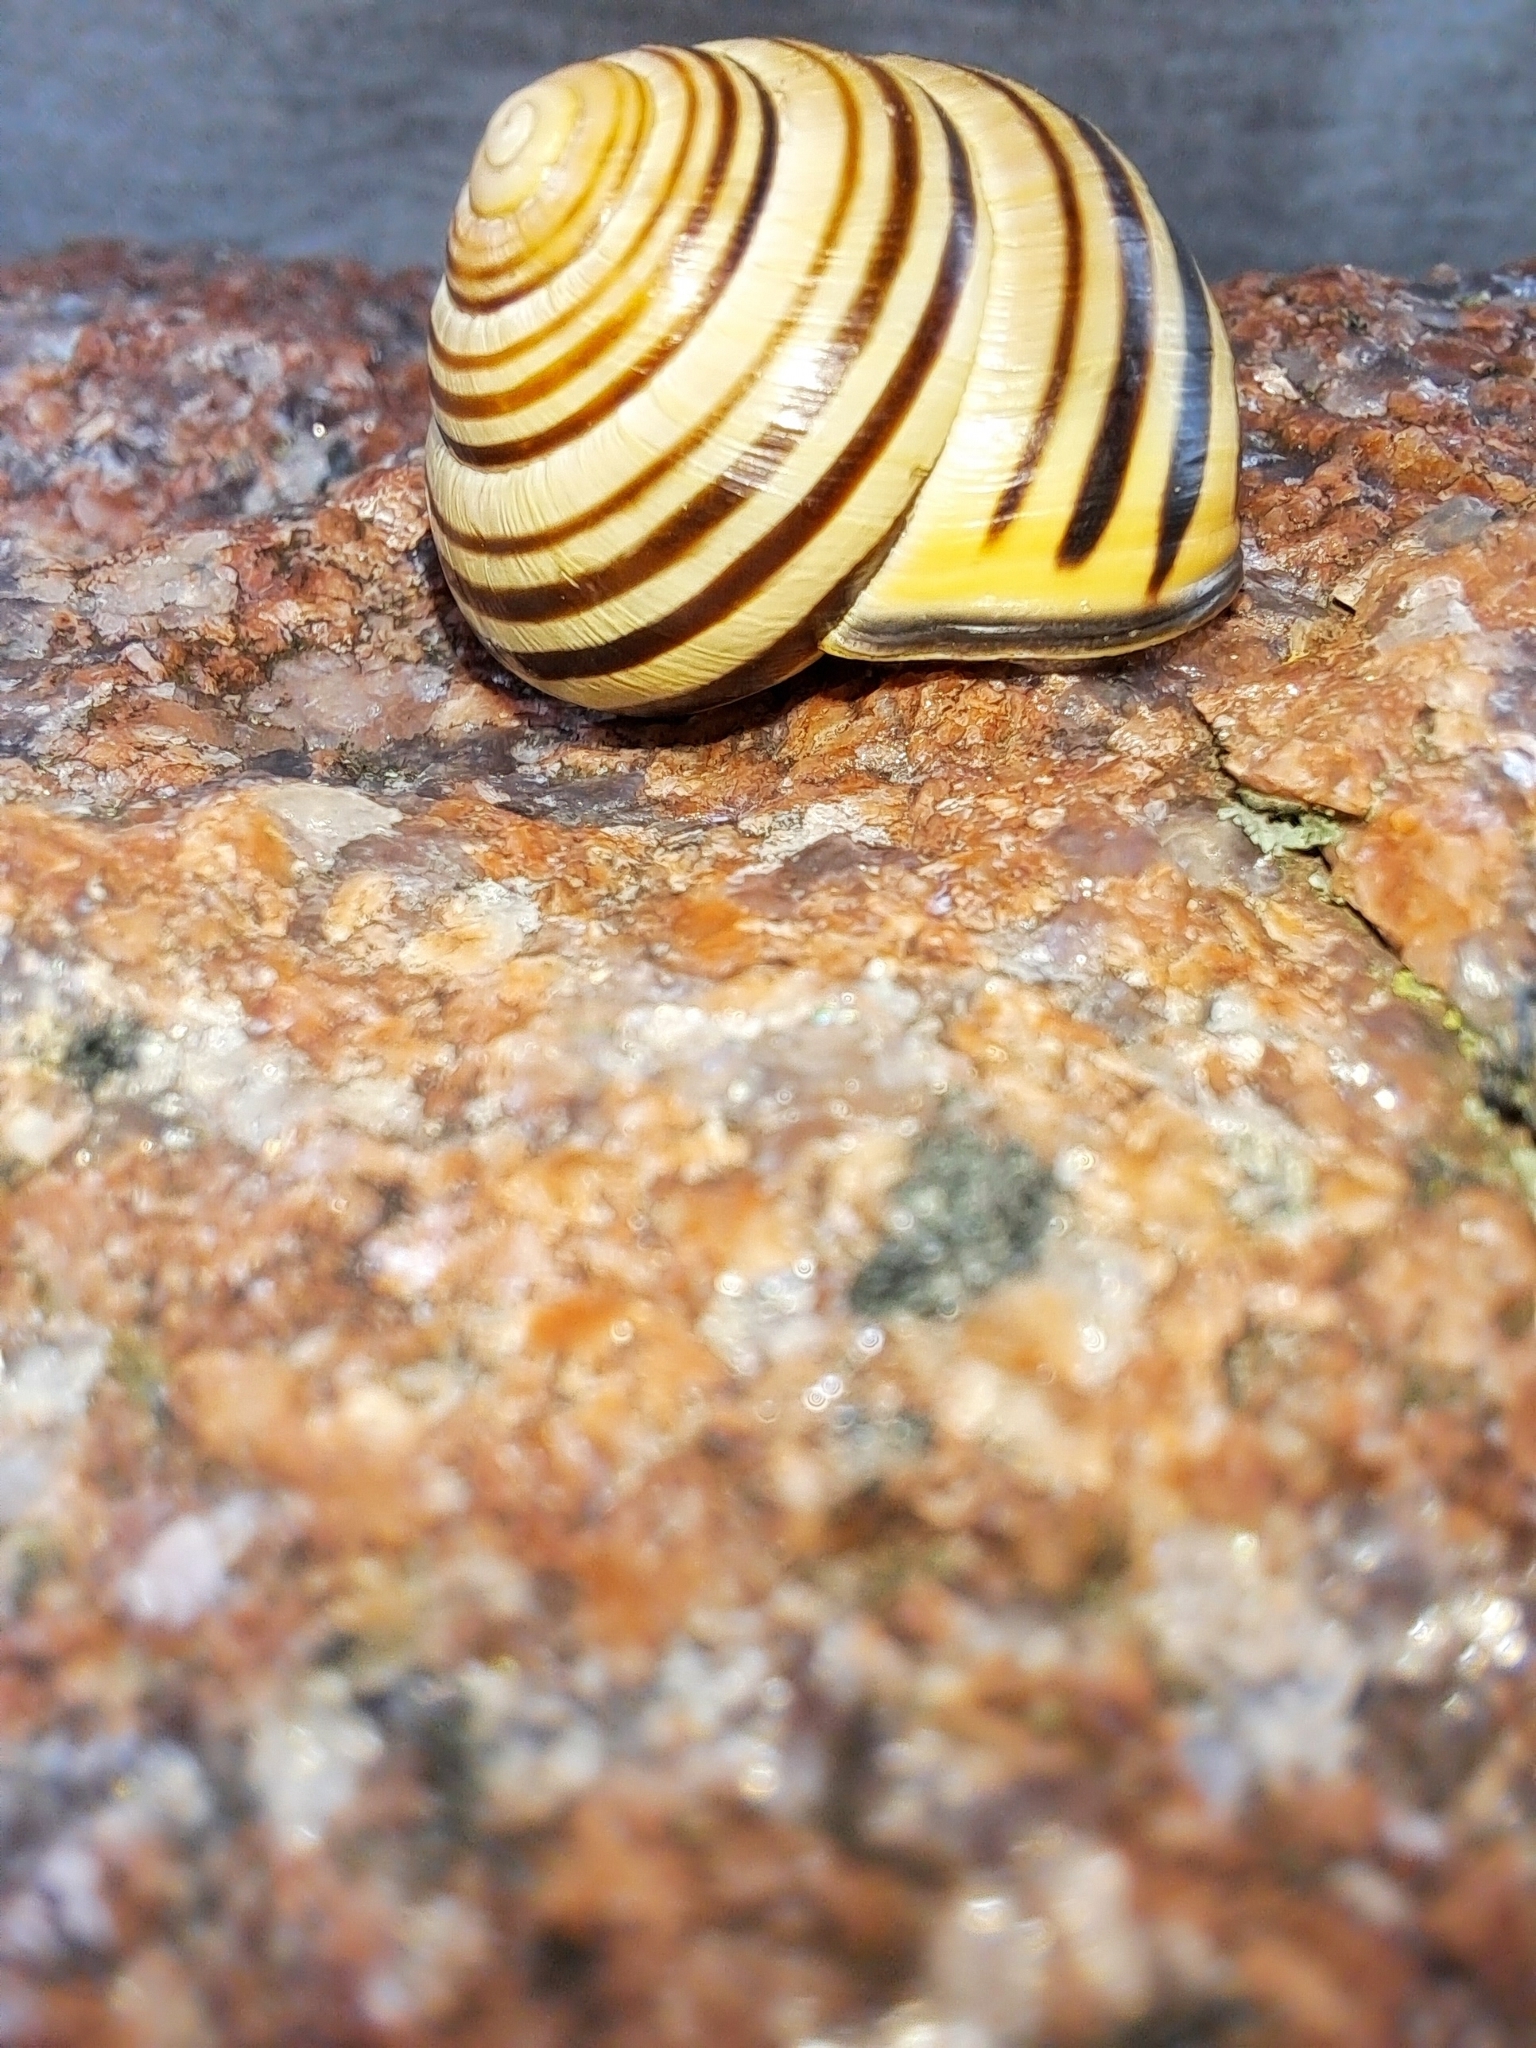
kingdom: Animalia
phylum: Mollusca
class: Gastropoda
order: Stylommatophora
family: Helicidae
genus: Cepaea
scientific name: Cepaea nemoralis
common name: Grovesnail
